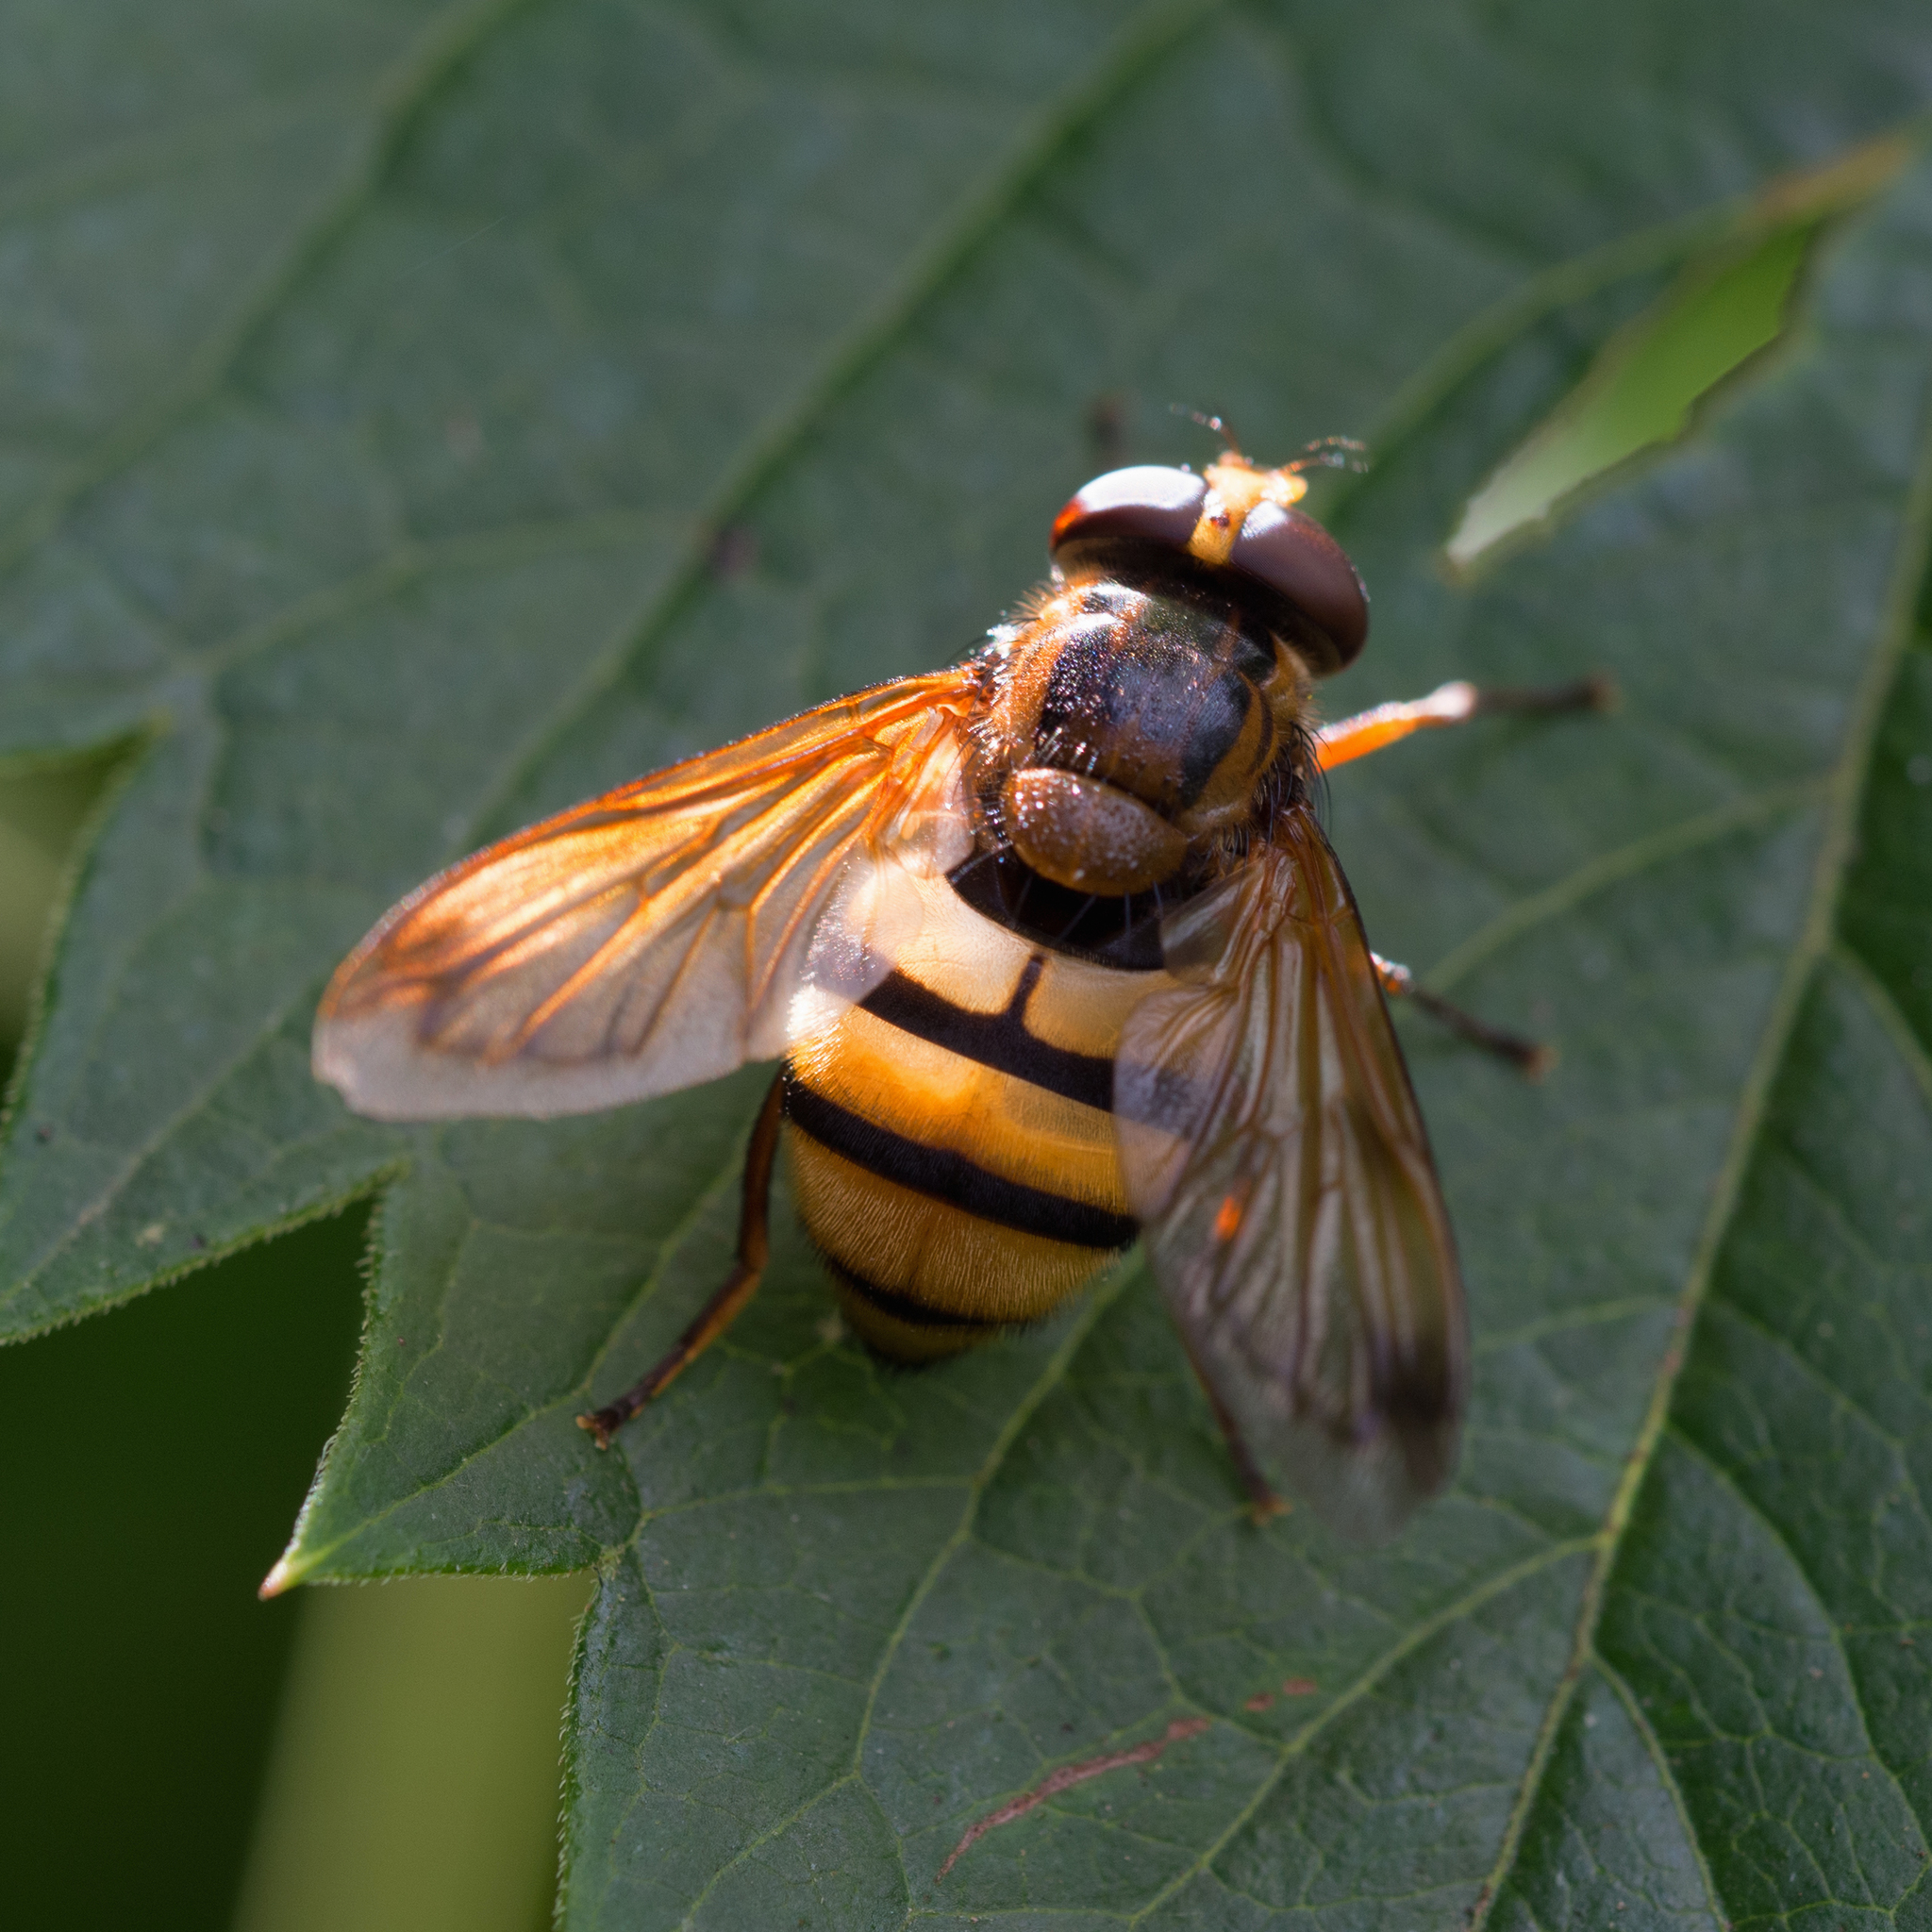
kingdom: Animalia
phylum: Arthropoda
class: Insecta
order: Diptera
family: Syrphidae
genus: Volucella
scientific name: Volucella inanis
